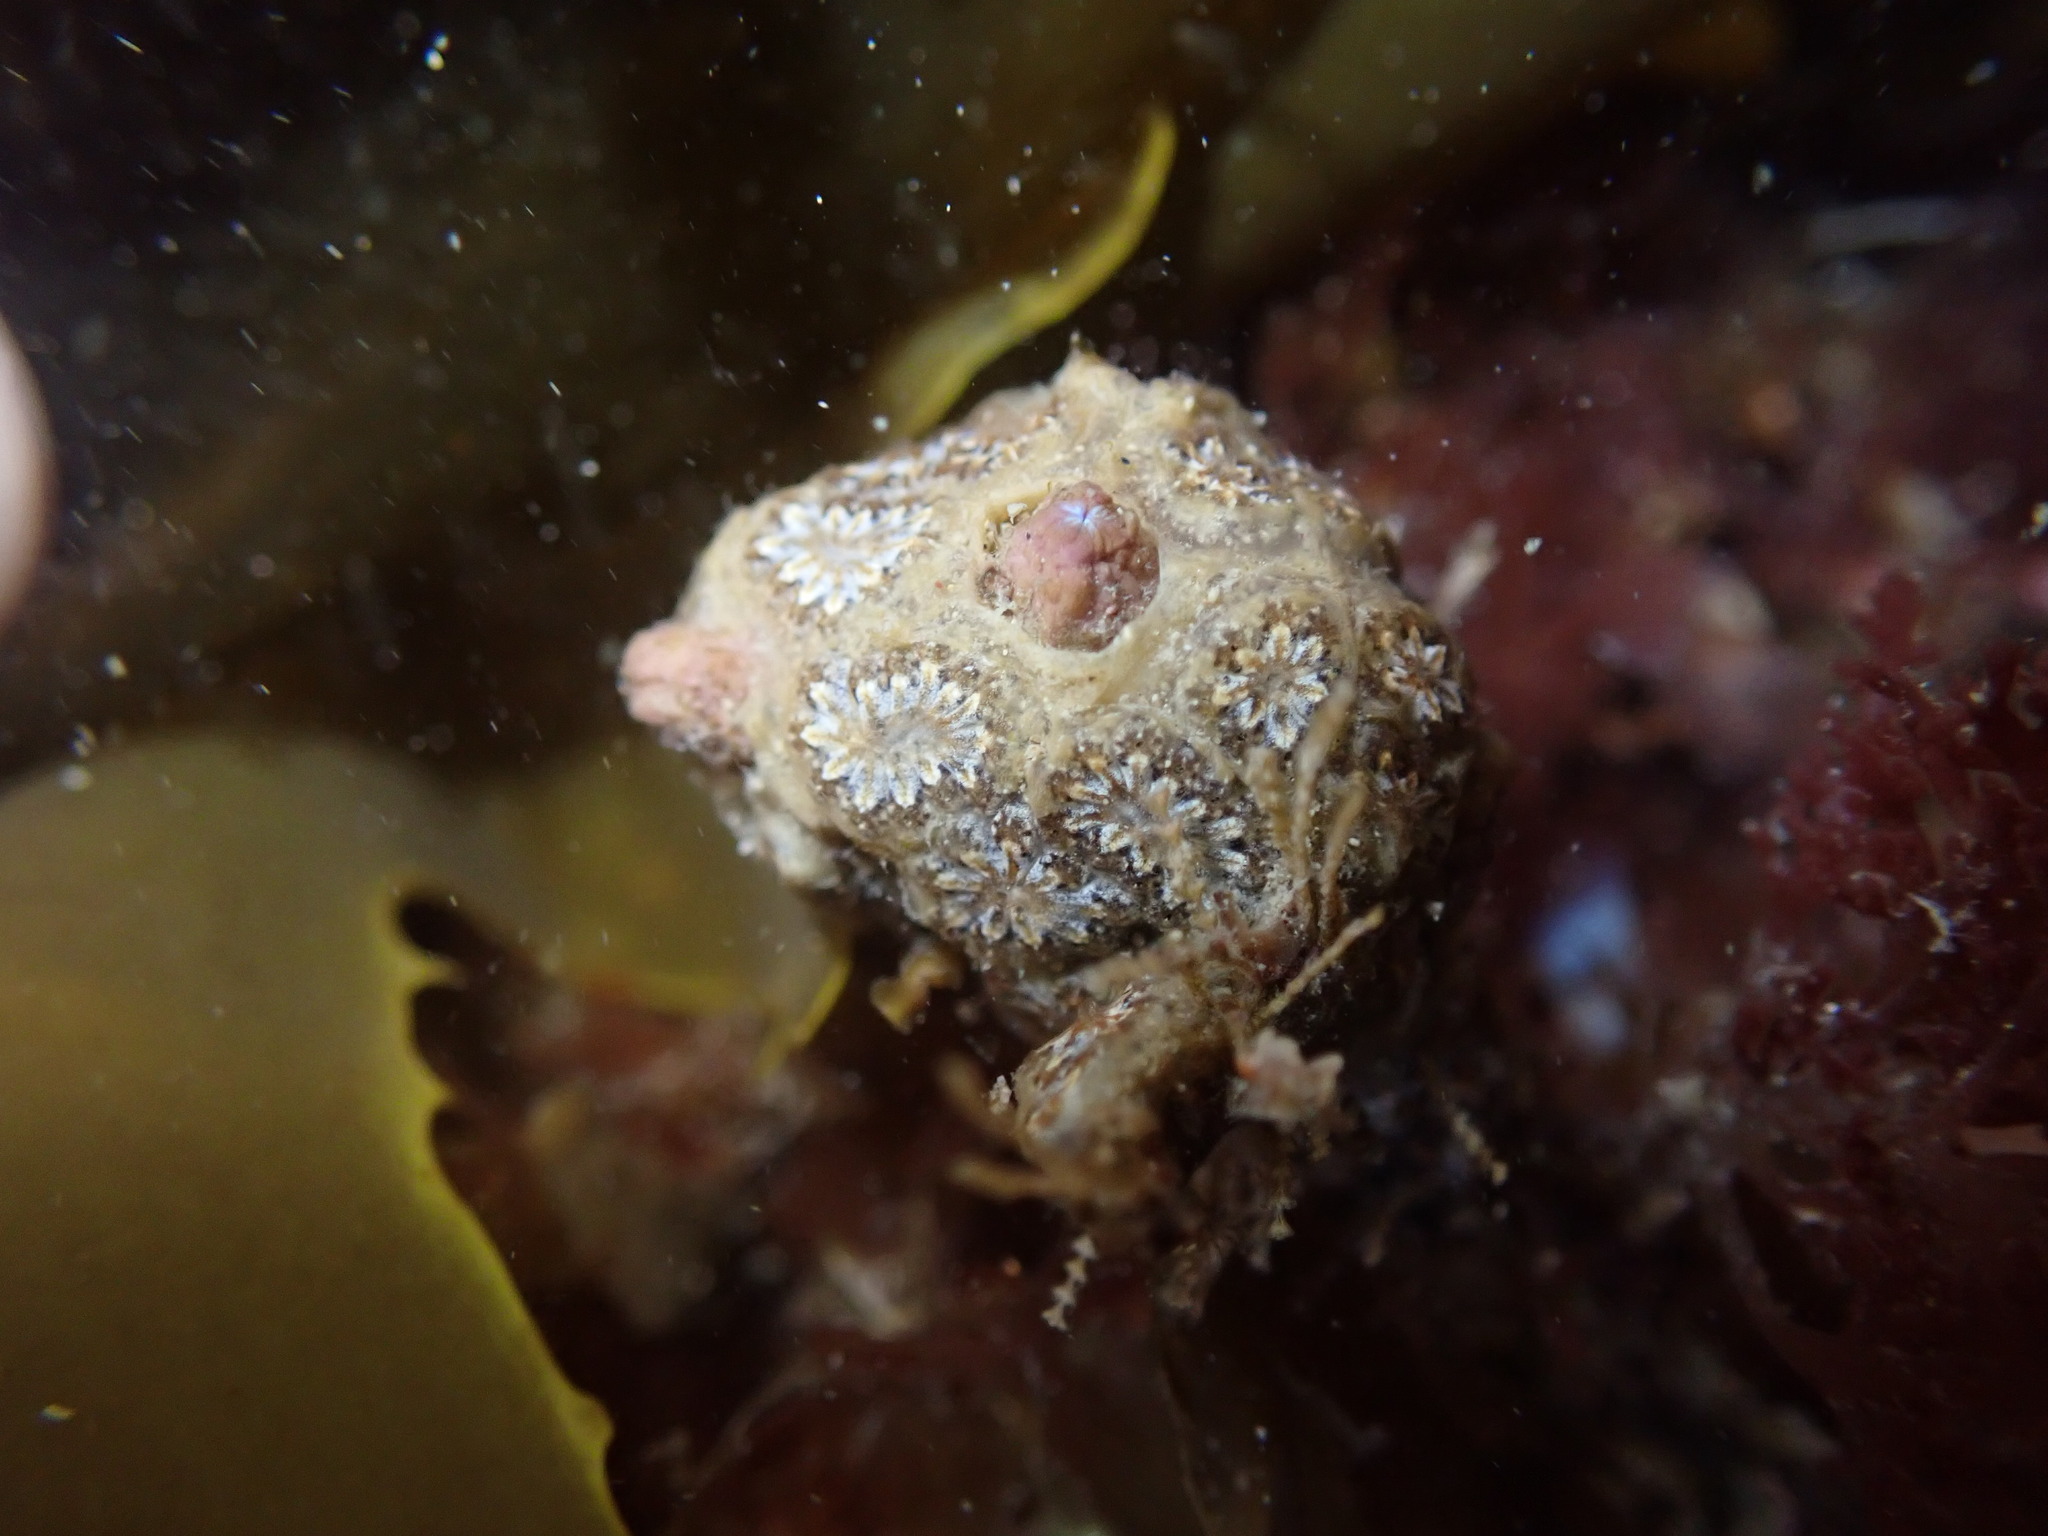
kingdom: Animalia
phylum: Chordata
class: Ascidiacea
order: Stolidobranchia
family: Styelidae
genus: Botryllus
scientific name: Botryllus schlosseri
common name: Golden star tunicate
